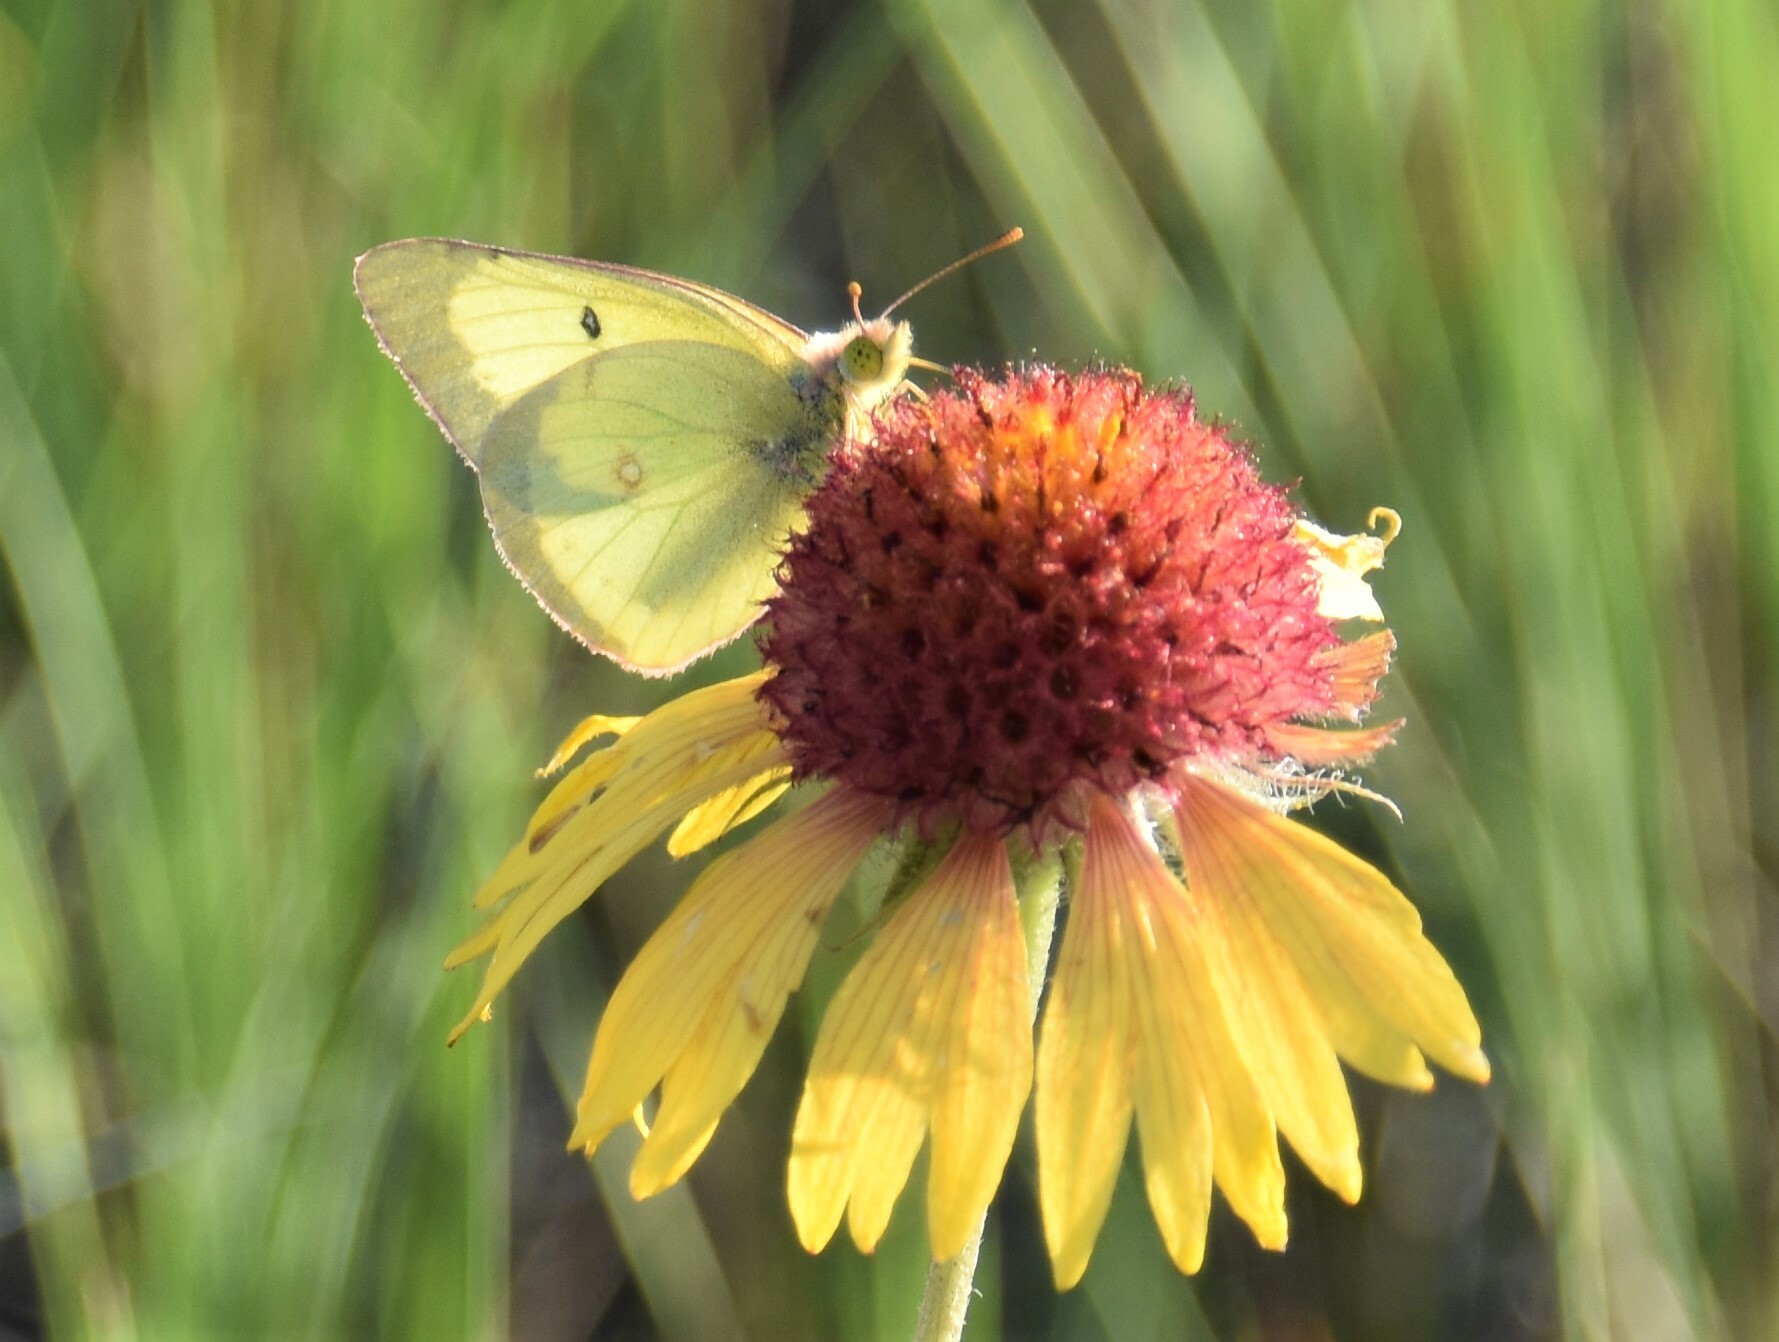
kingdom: Animalia
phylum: Arthropoda
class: Insecta
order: Lepidoptera
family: Pieridae
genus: Colias
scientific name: Colias philodice
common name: Clouded sulphur
